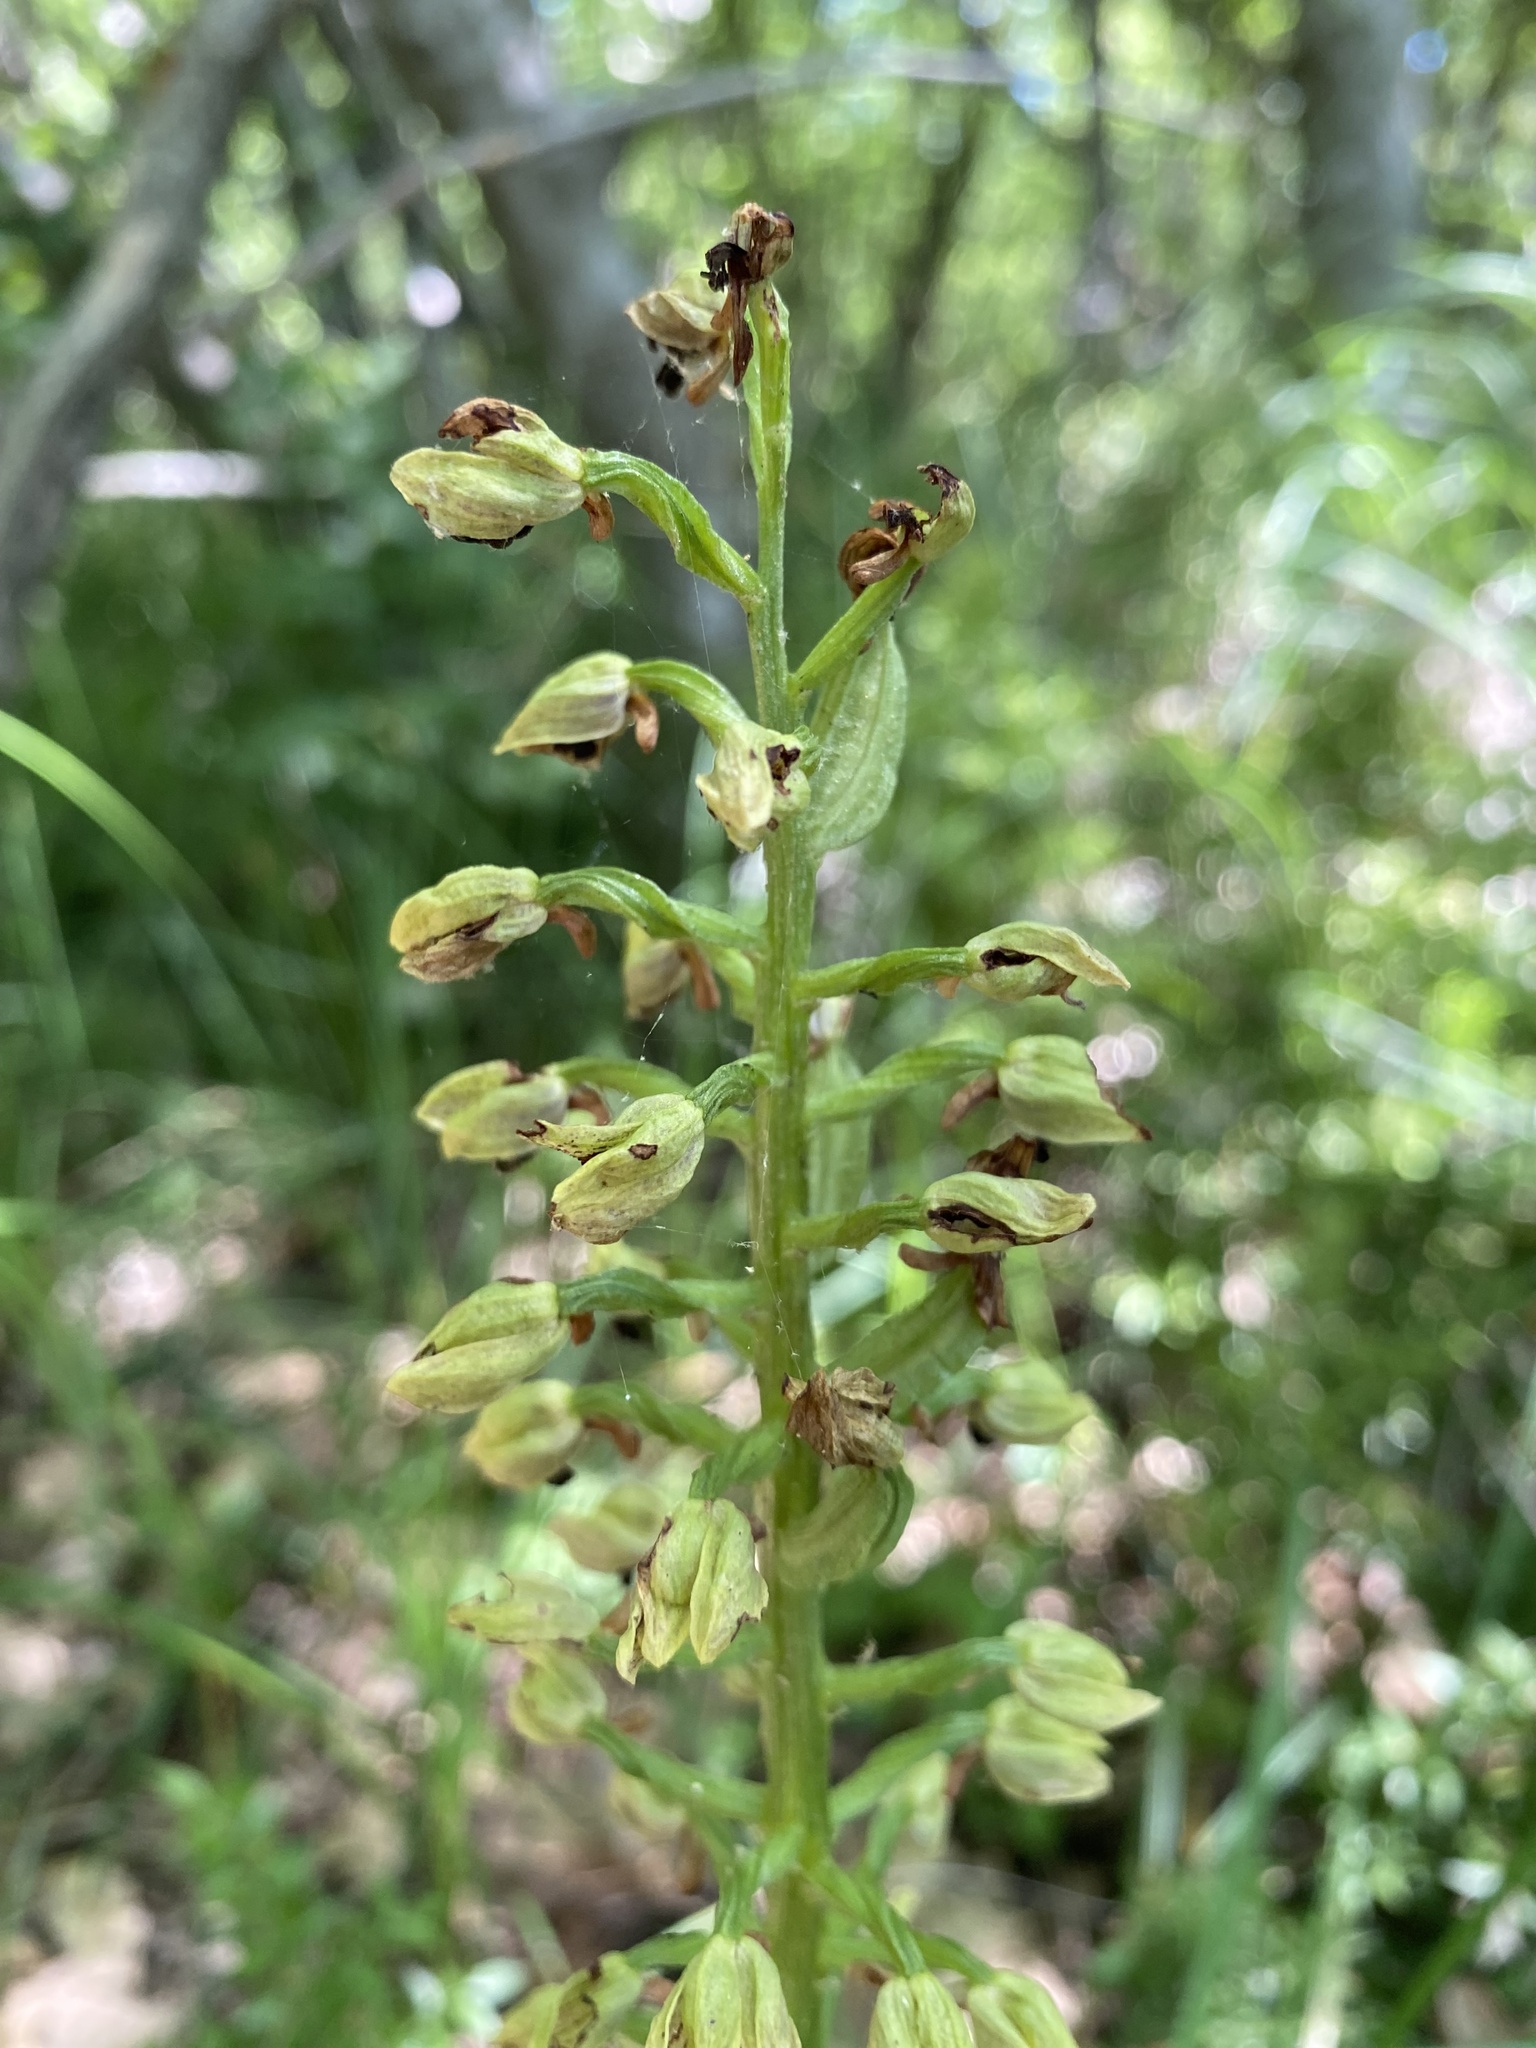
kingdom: Plantae
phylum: Tracheophyta
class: Liliopsida
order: Asparagales
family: Orchidaceae
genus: Orchis
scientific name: Orchis punctulata
